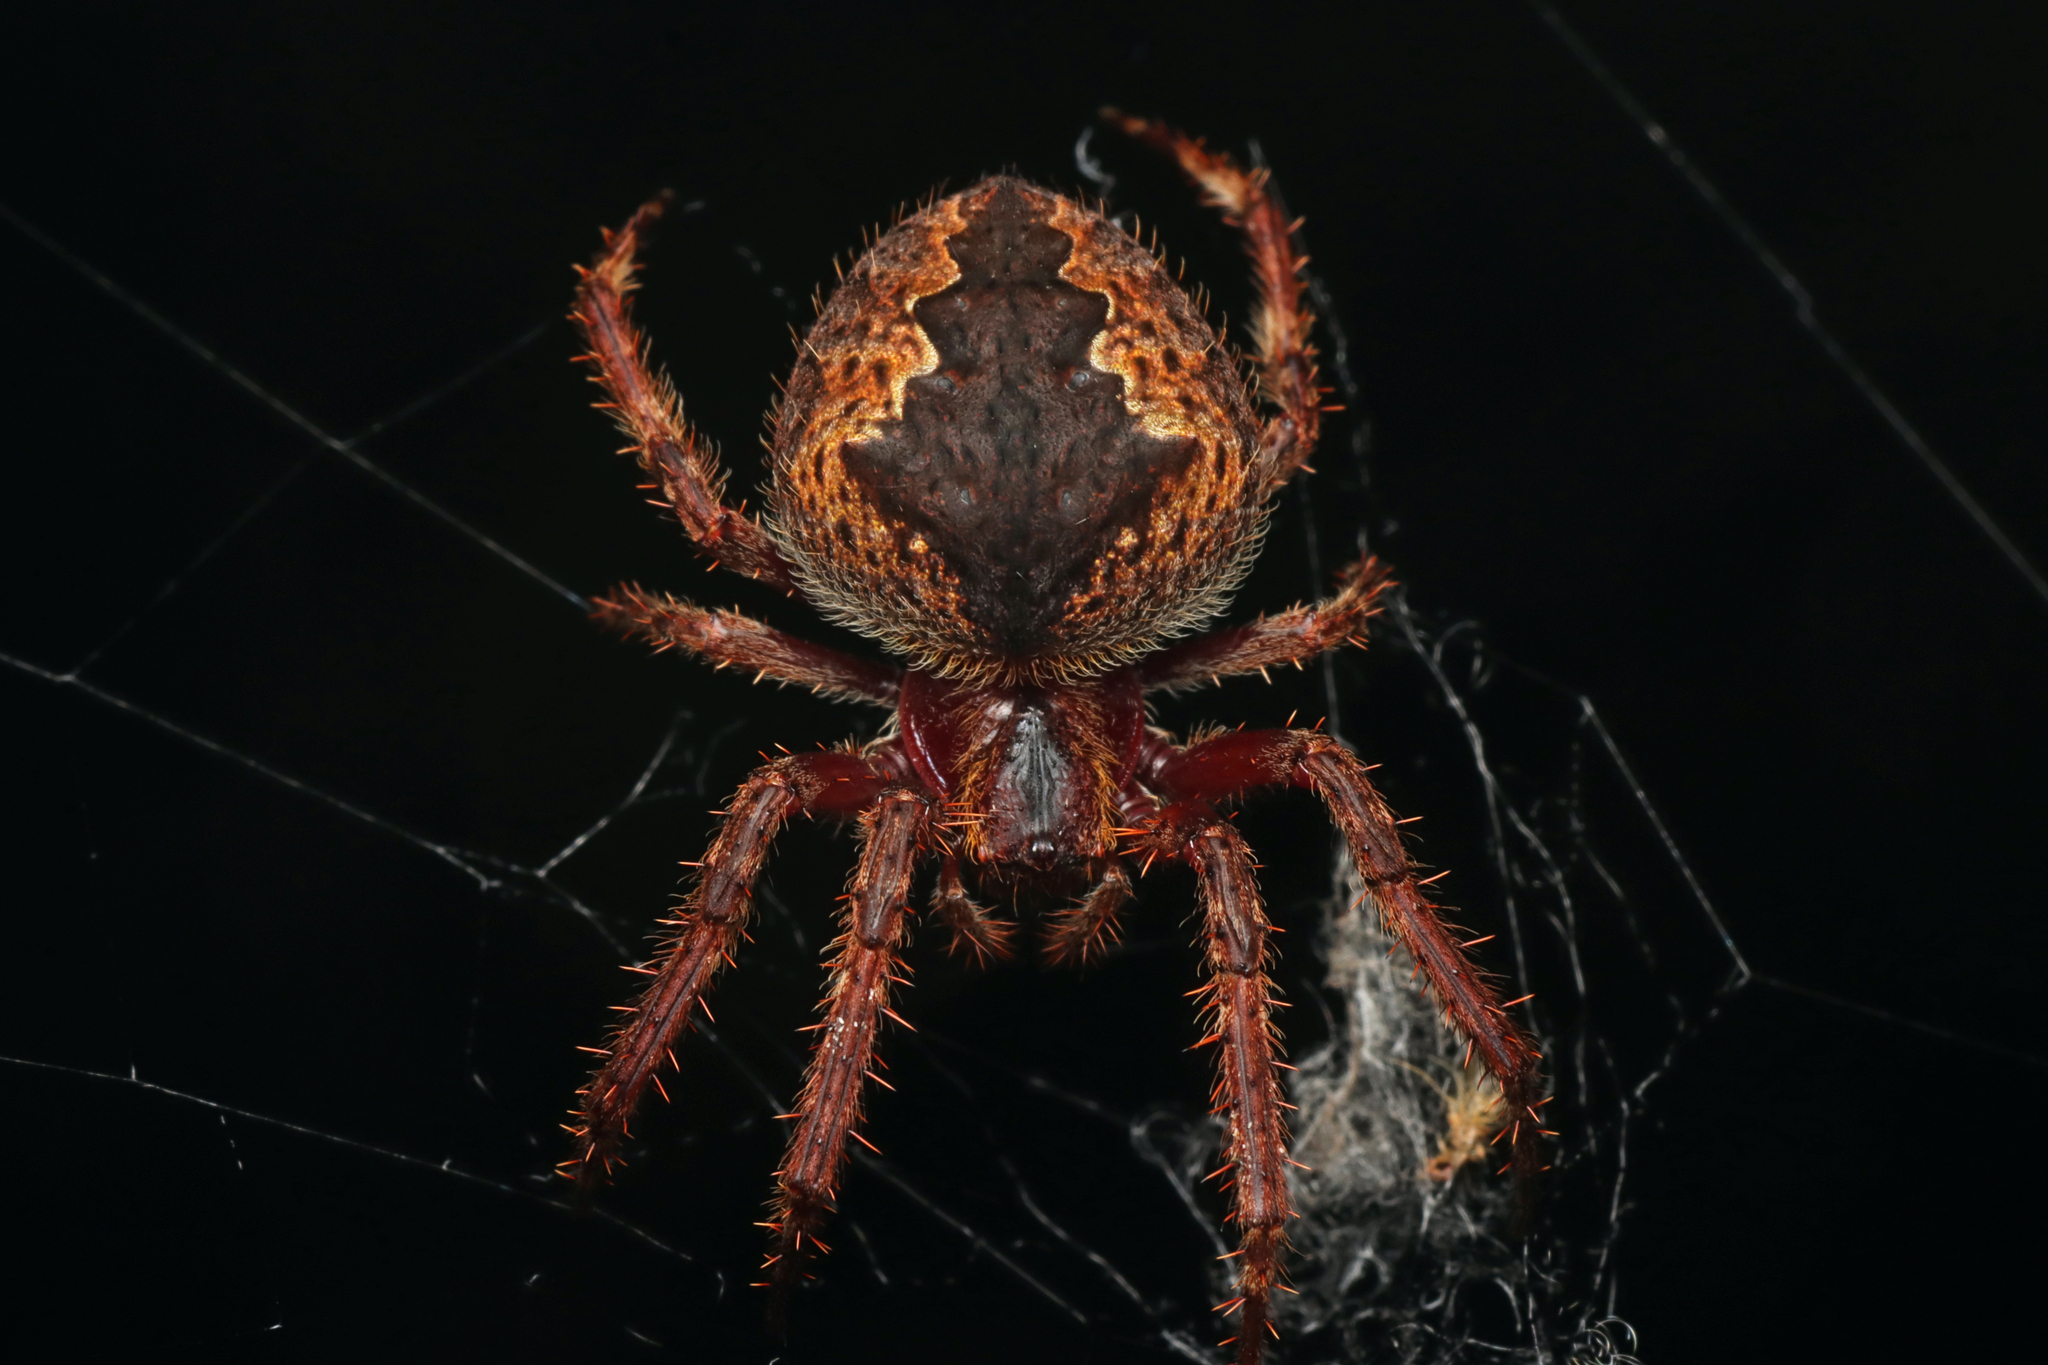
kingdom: Animalia
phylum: Arthropoda
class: Arachnida
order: Araneae
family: Araneidae
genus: Hortophora
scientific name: Hortophora biapicata
